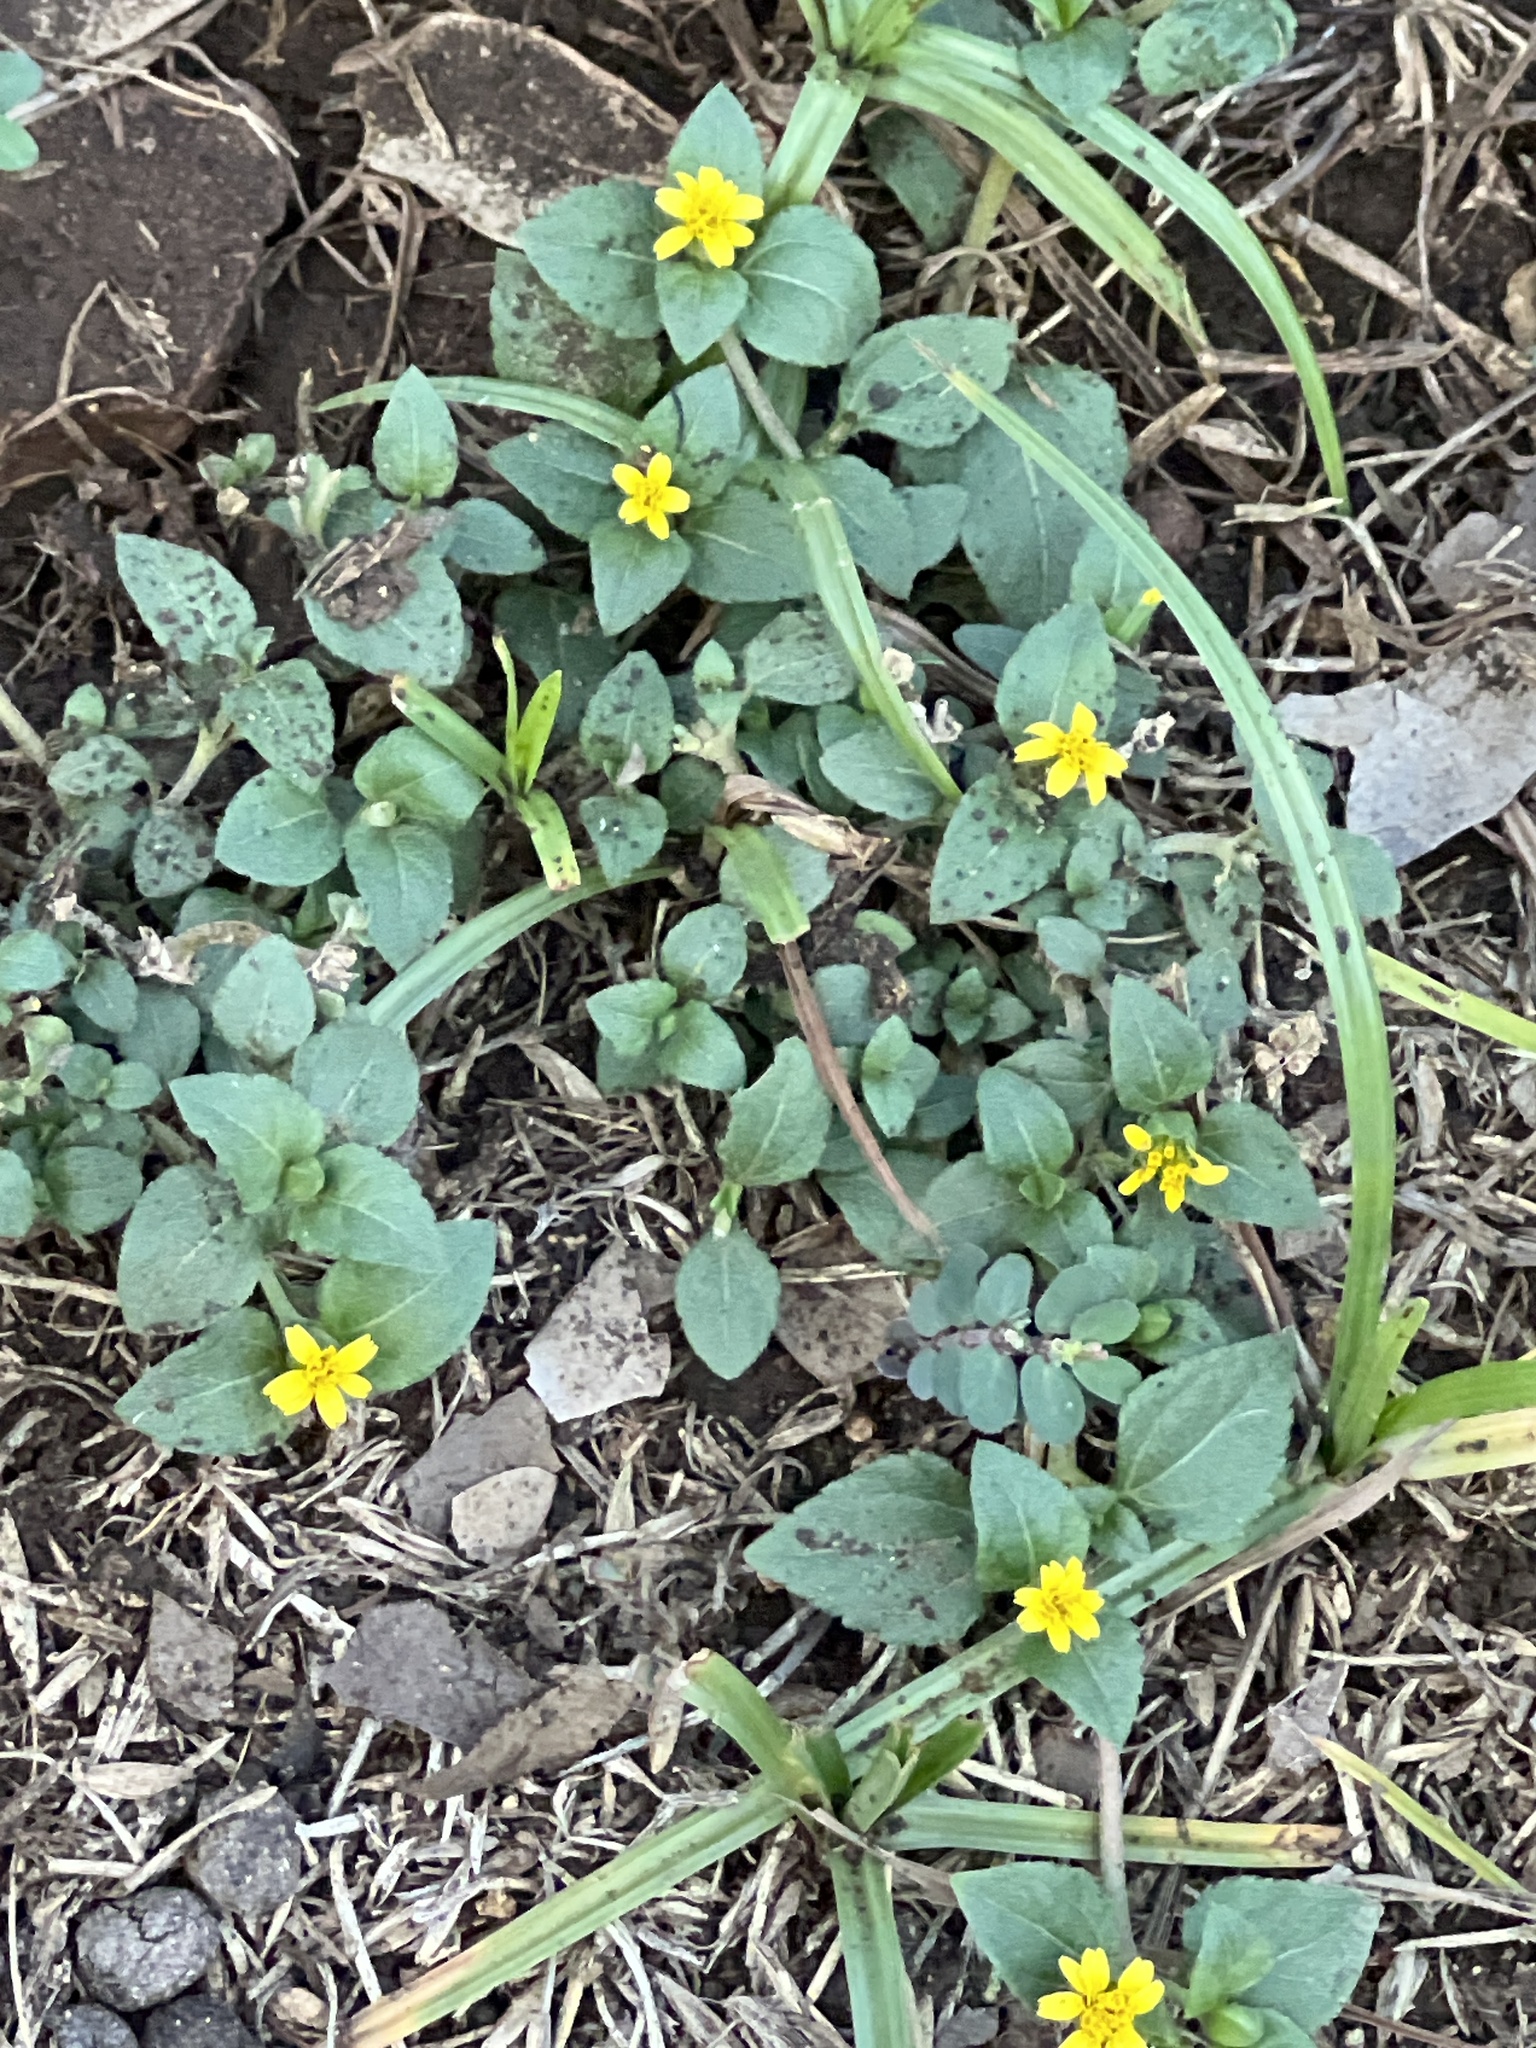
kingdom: Plantae
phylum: Tracheophyta
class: Magnoliopsida
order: Asterales
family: Asteraceae
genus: Calyptocarpus
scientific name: Calyptocarpus vialis
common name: Straggler daisy
